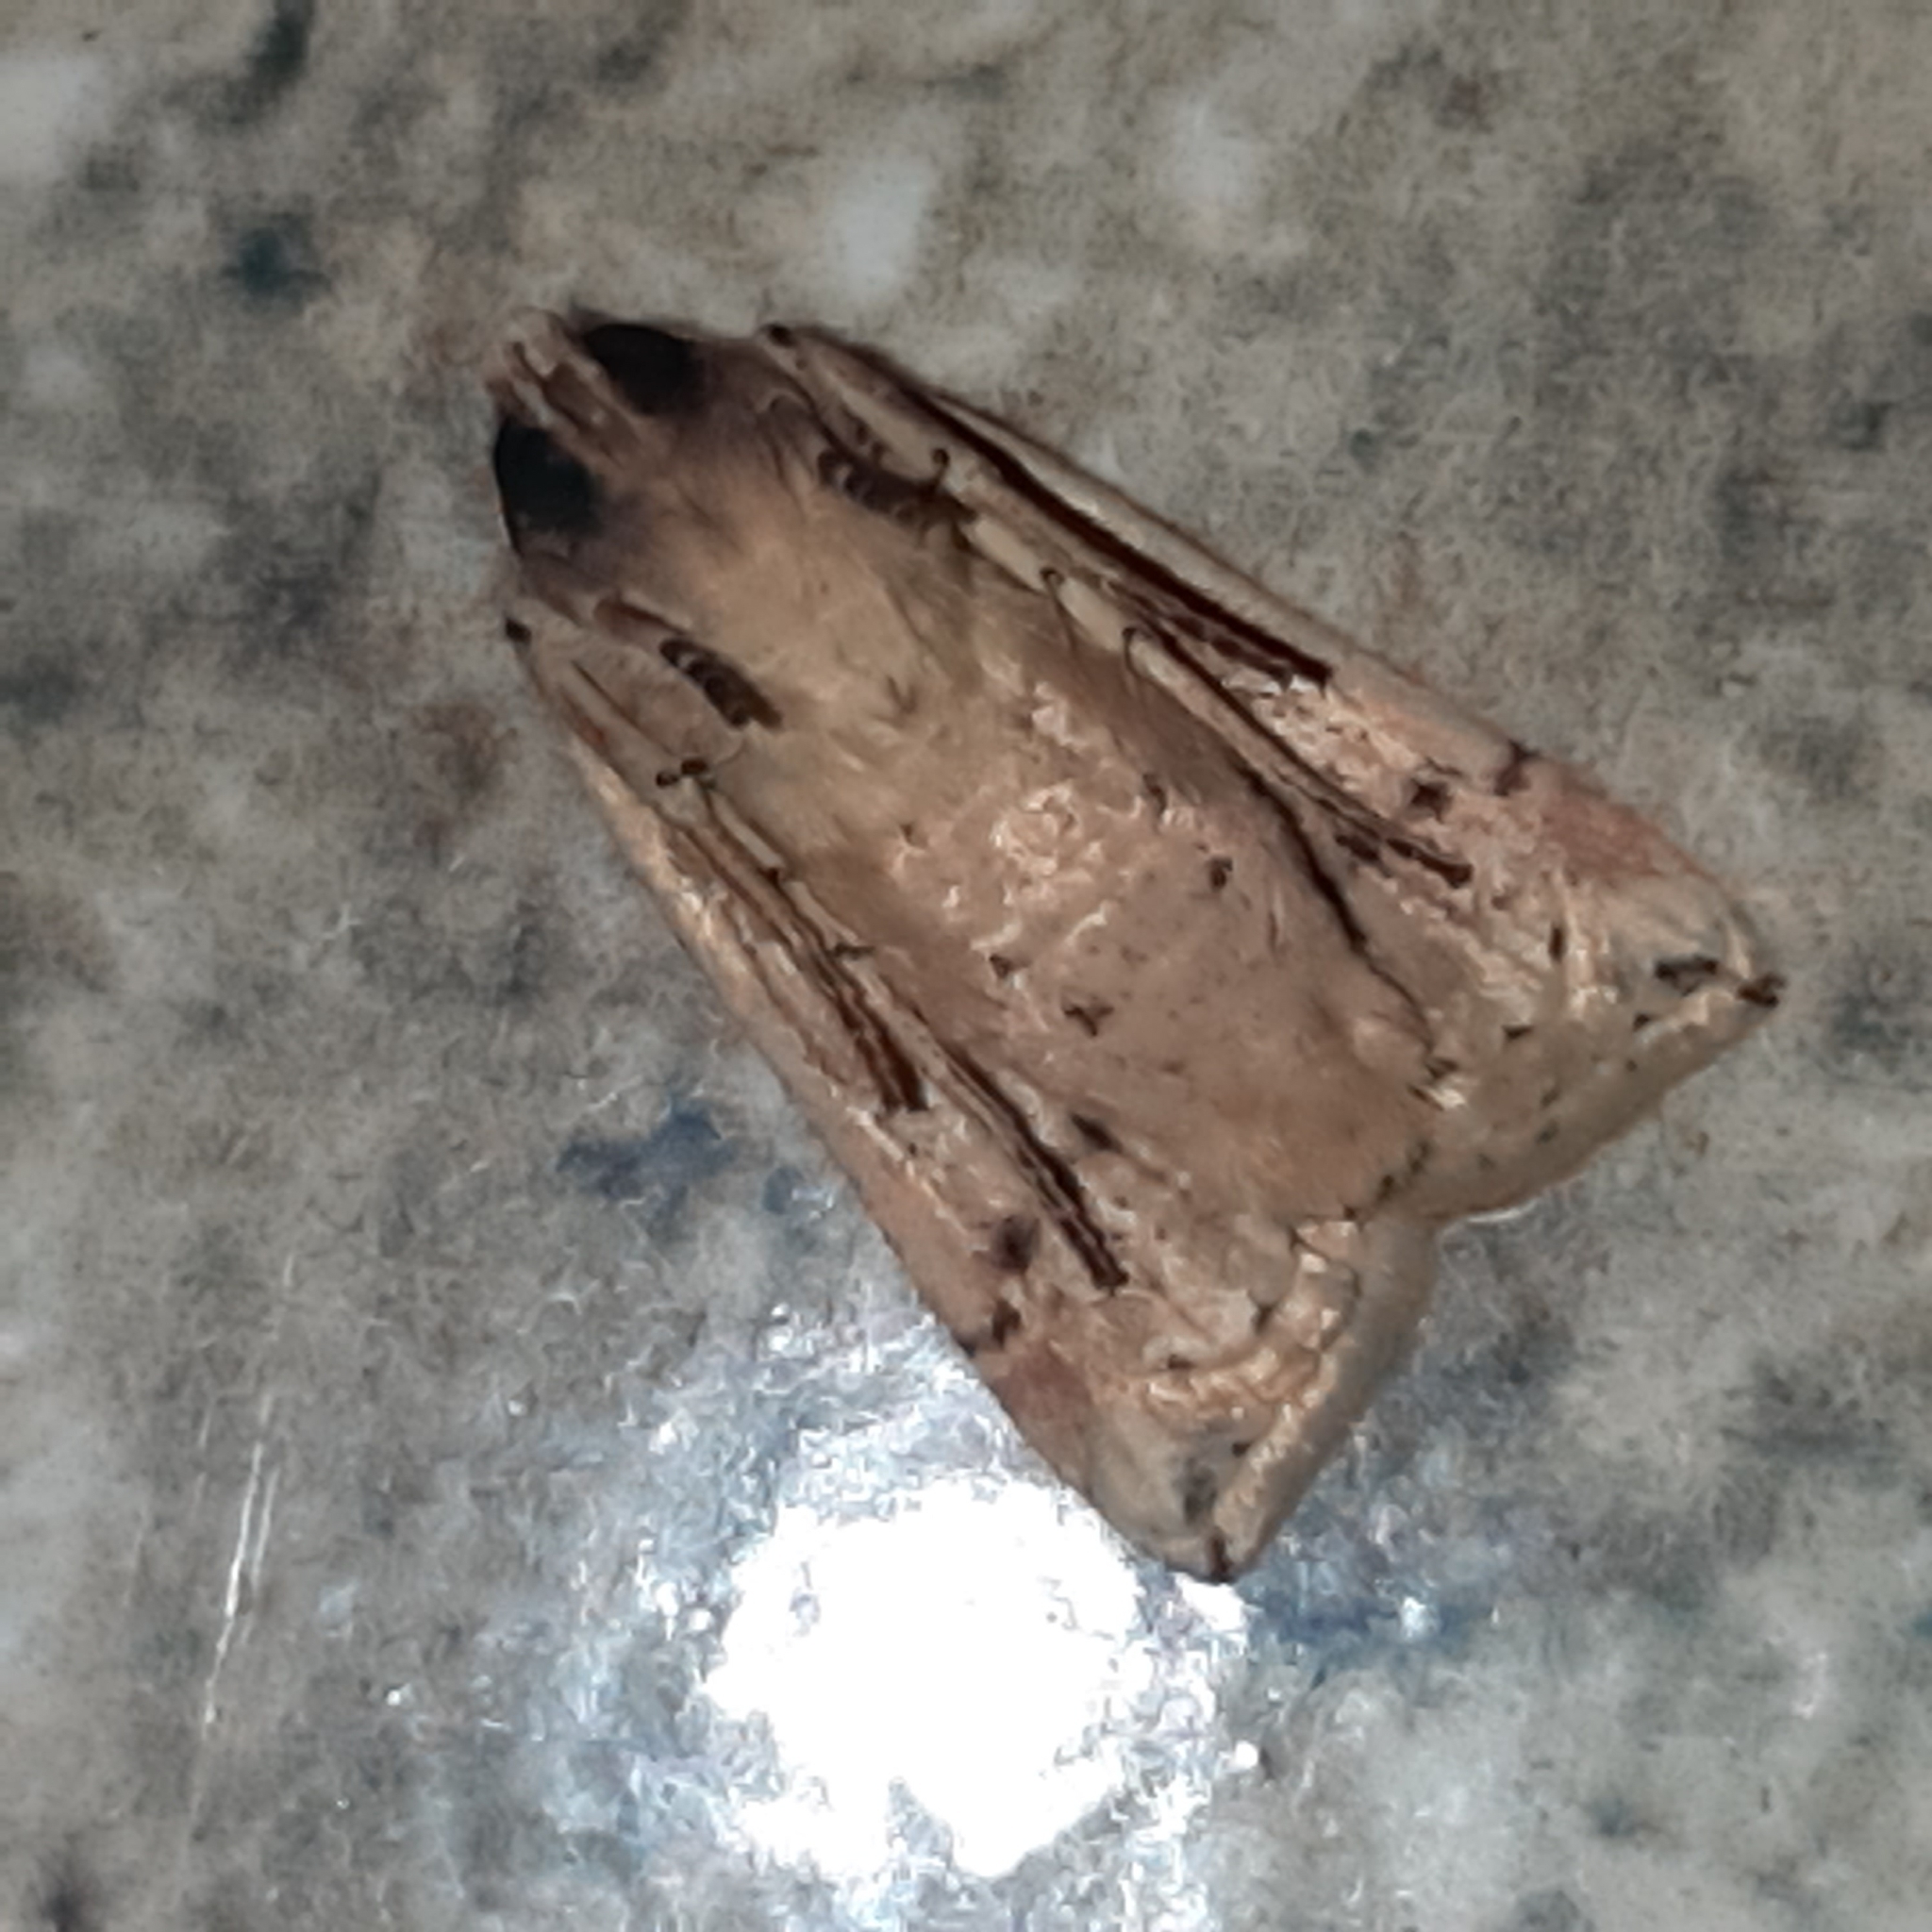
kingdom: Animalia
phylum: Arthropoda
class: Insecta
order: Lepidoptera
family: Noctuidae
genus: Eriopyga
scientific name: Eriopyga
